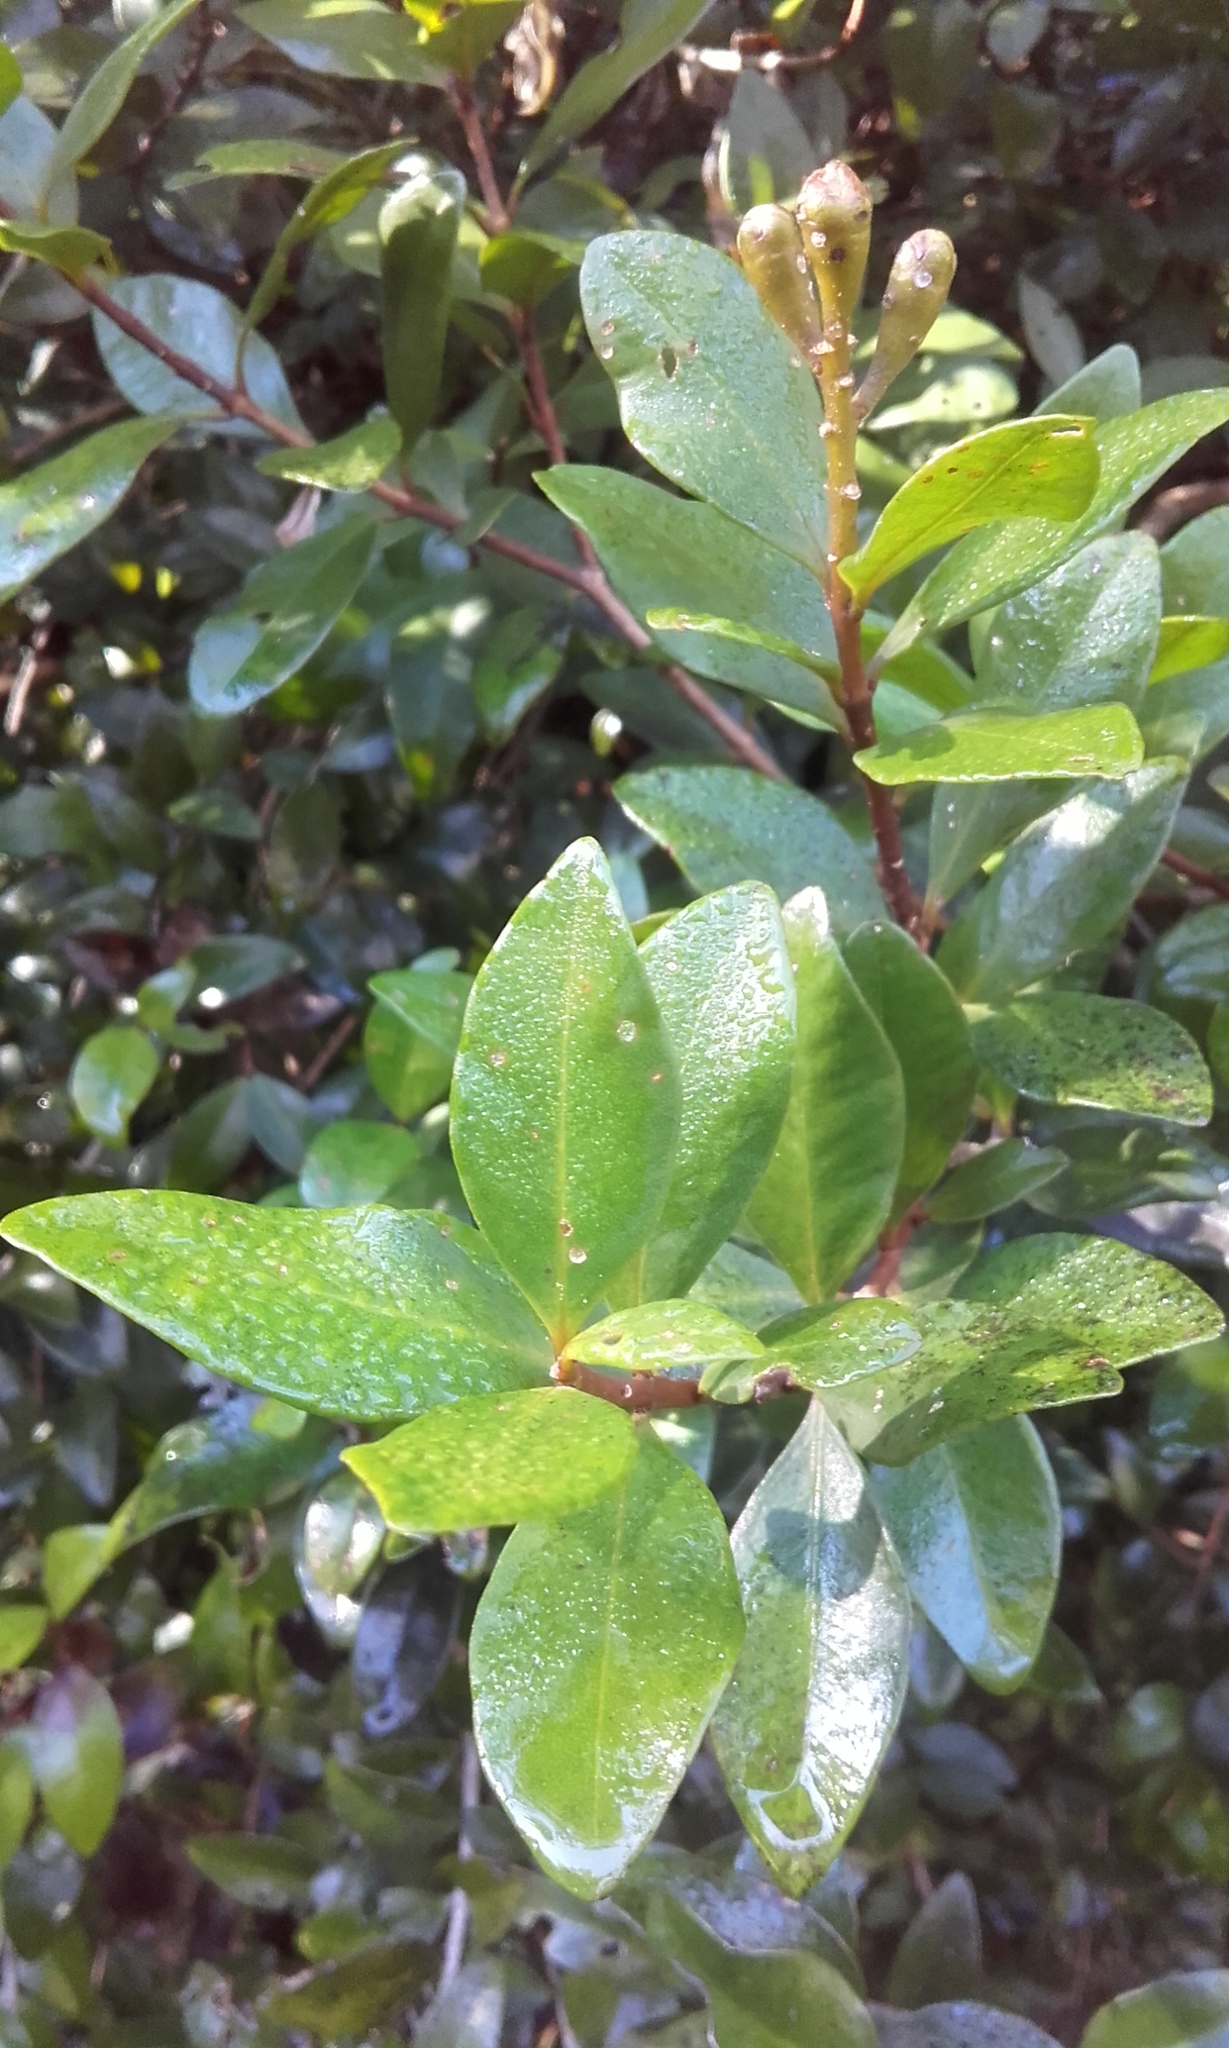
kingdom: Plantae
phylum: Tracheophyta
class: Magnoliopsida
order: Myrtales
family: Myrtaceae
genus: Metrosideros
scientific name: Metrosideros fulgens
